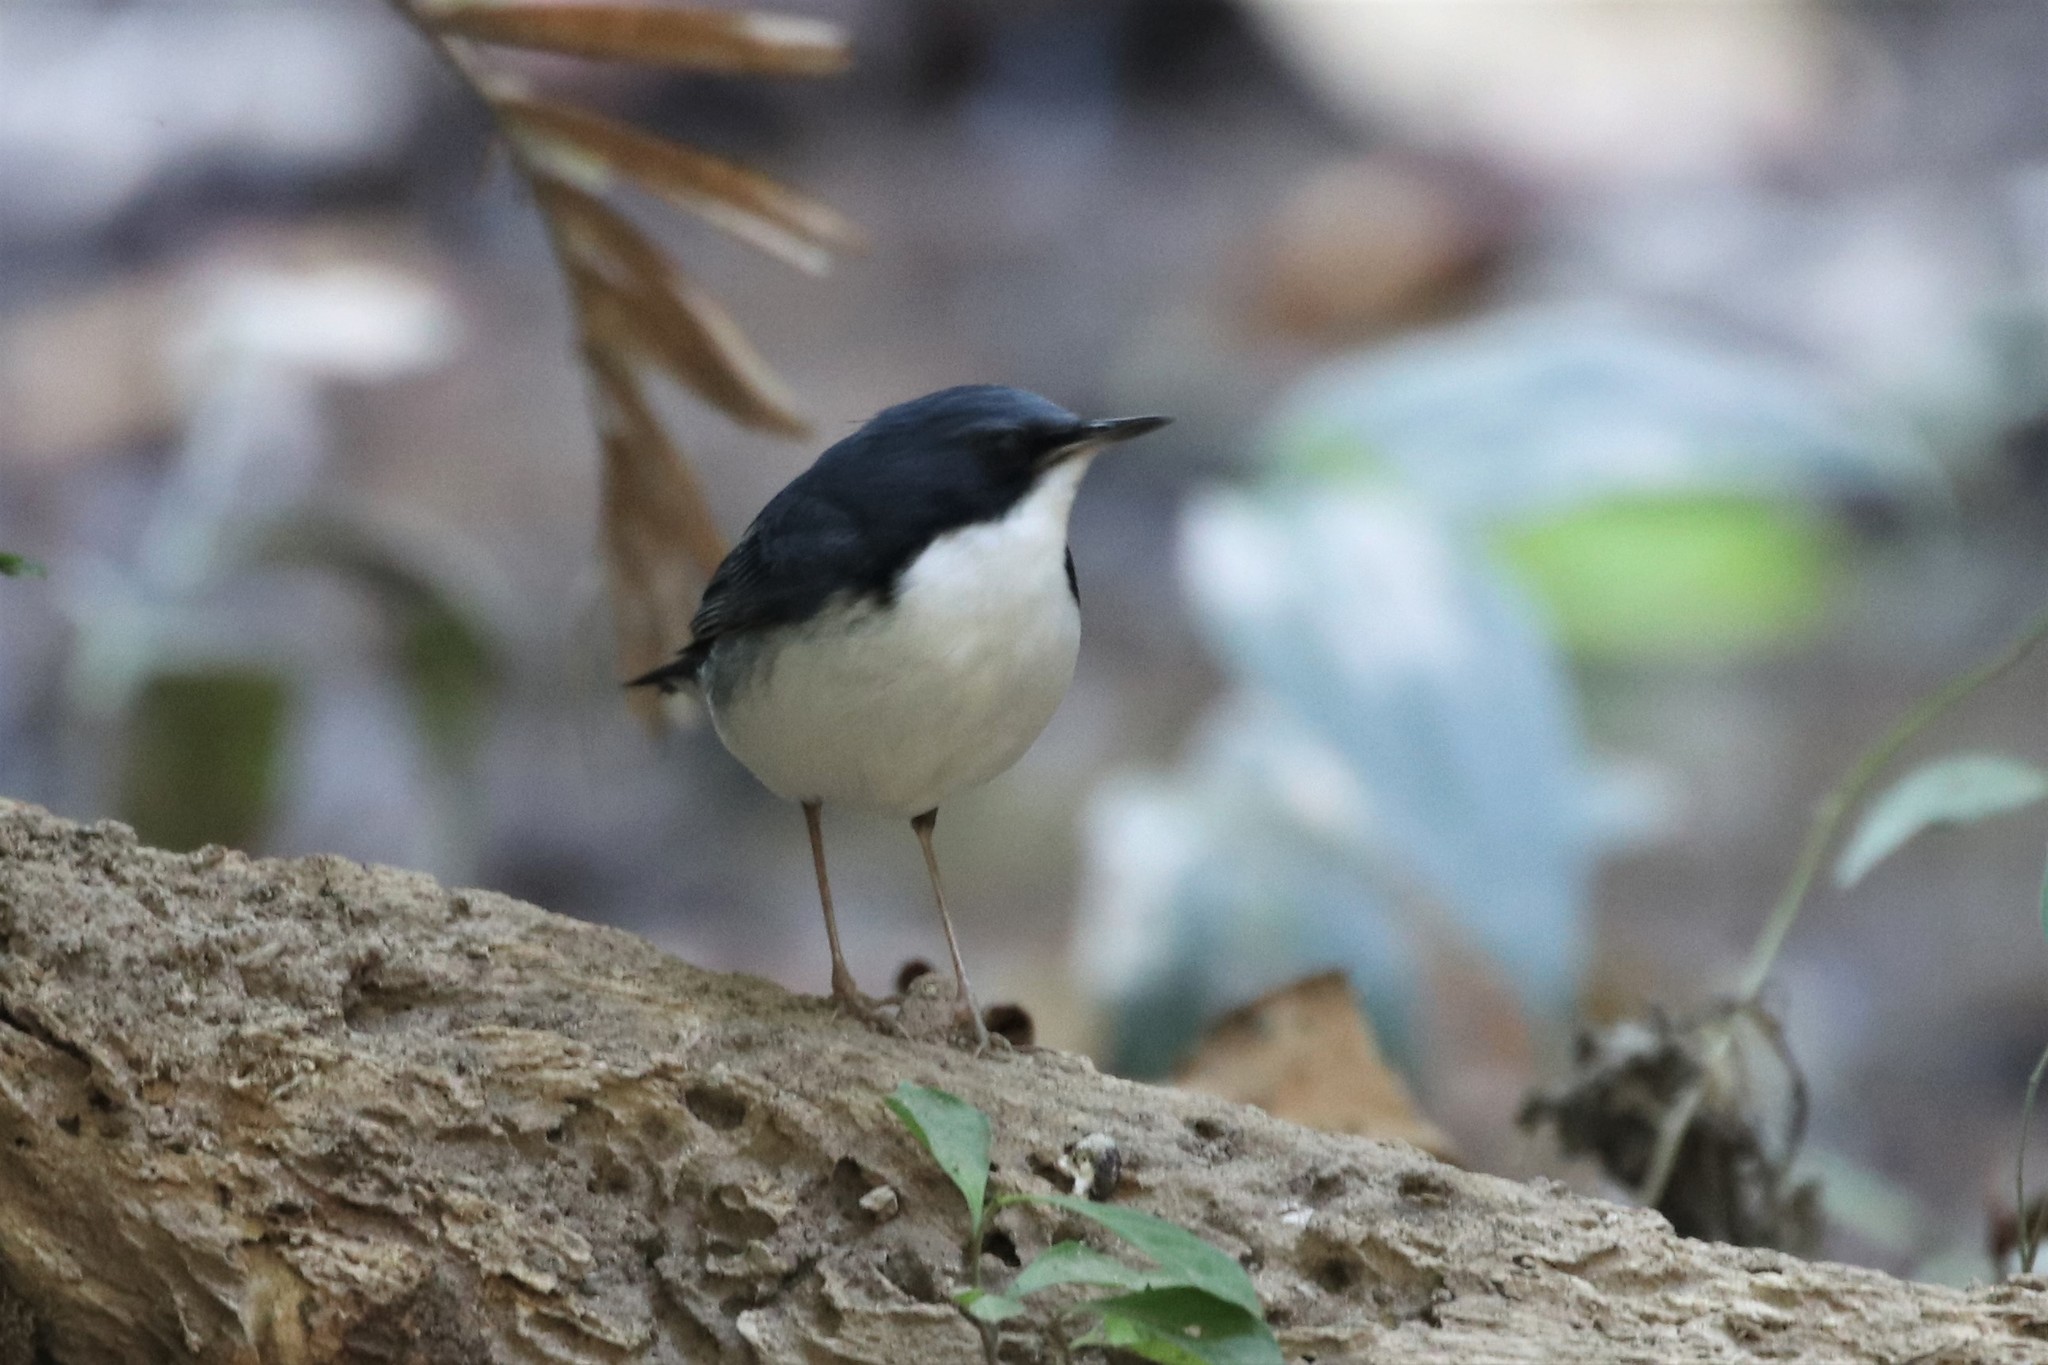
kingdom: Animalia
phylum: Chordata
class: Aves
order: Passeriformes
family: Muscicapidae
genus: Luscinia
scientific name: Luscinia cyane
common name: Siberian blue robin
